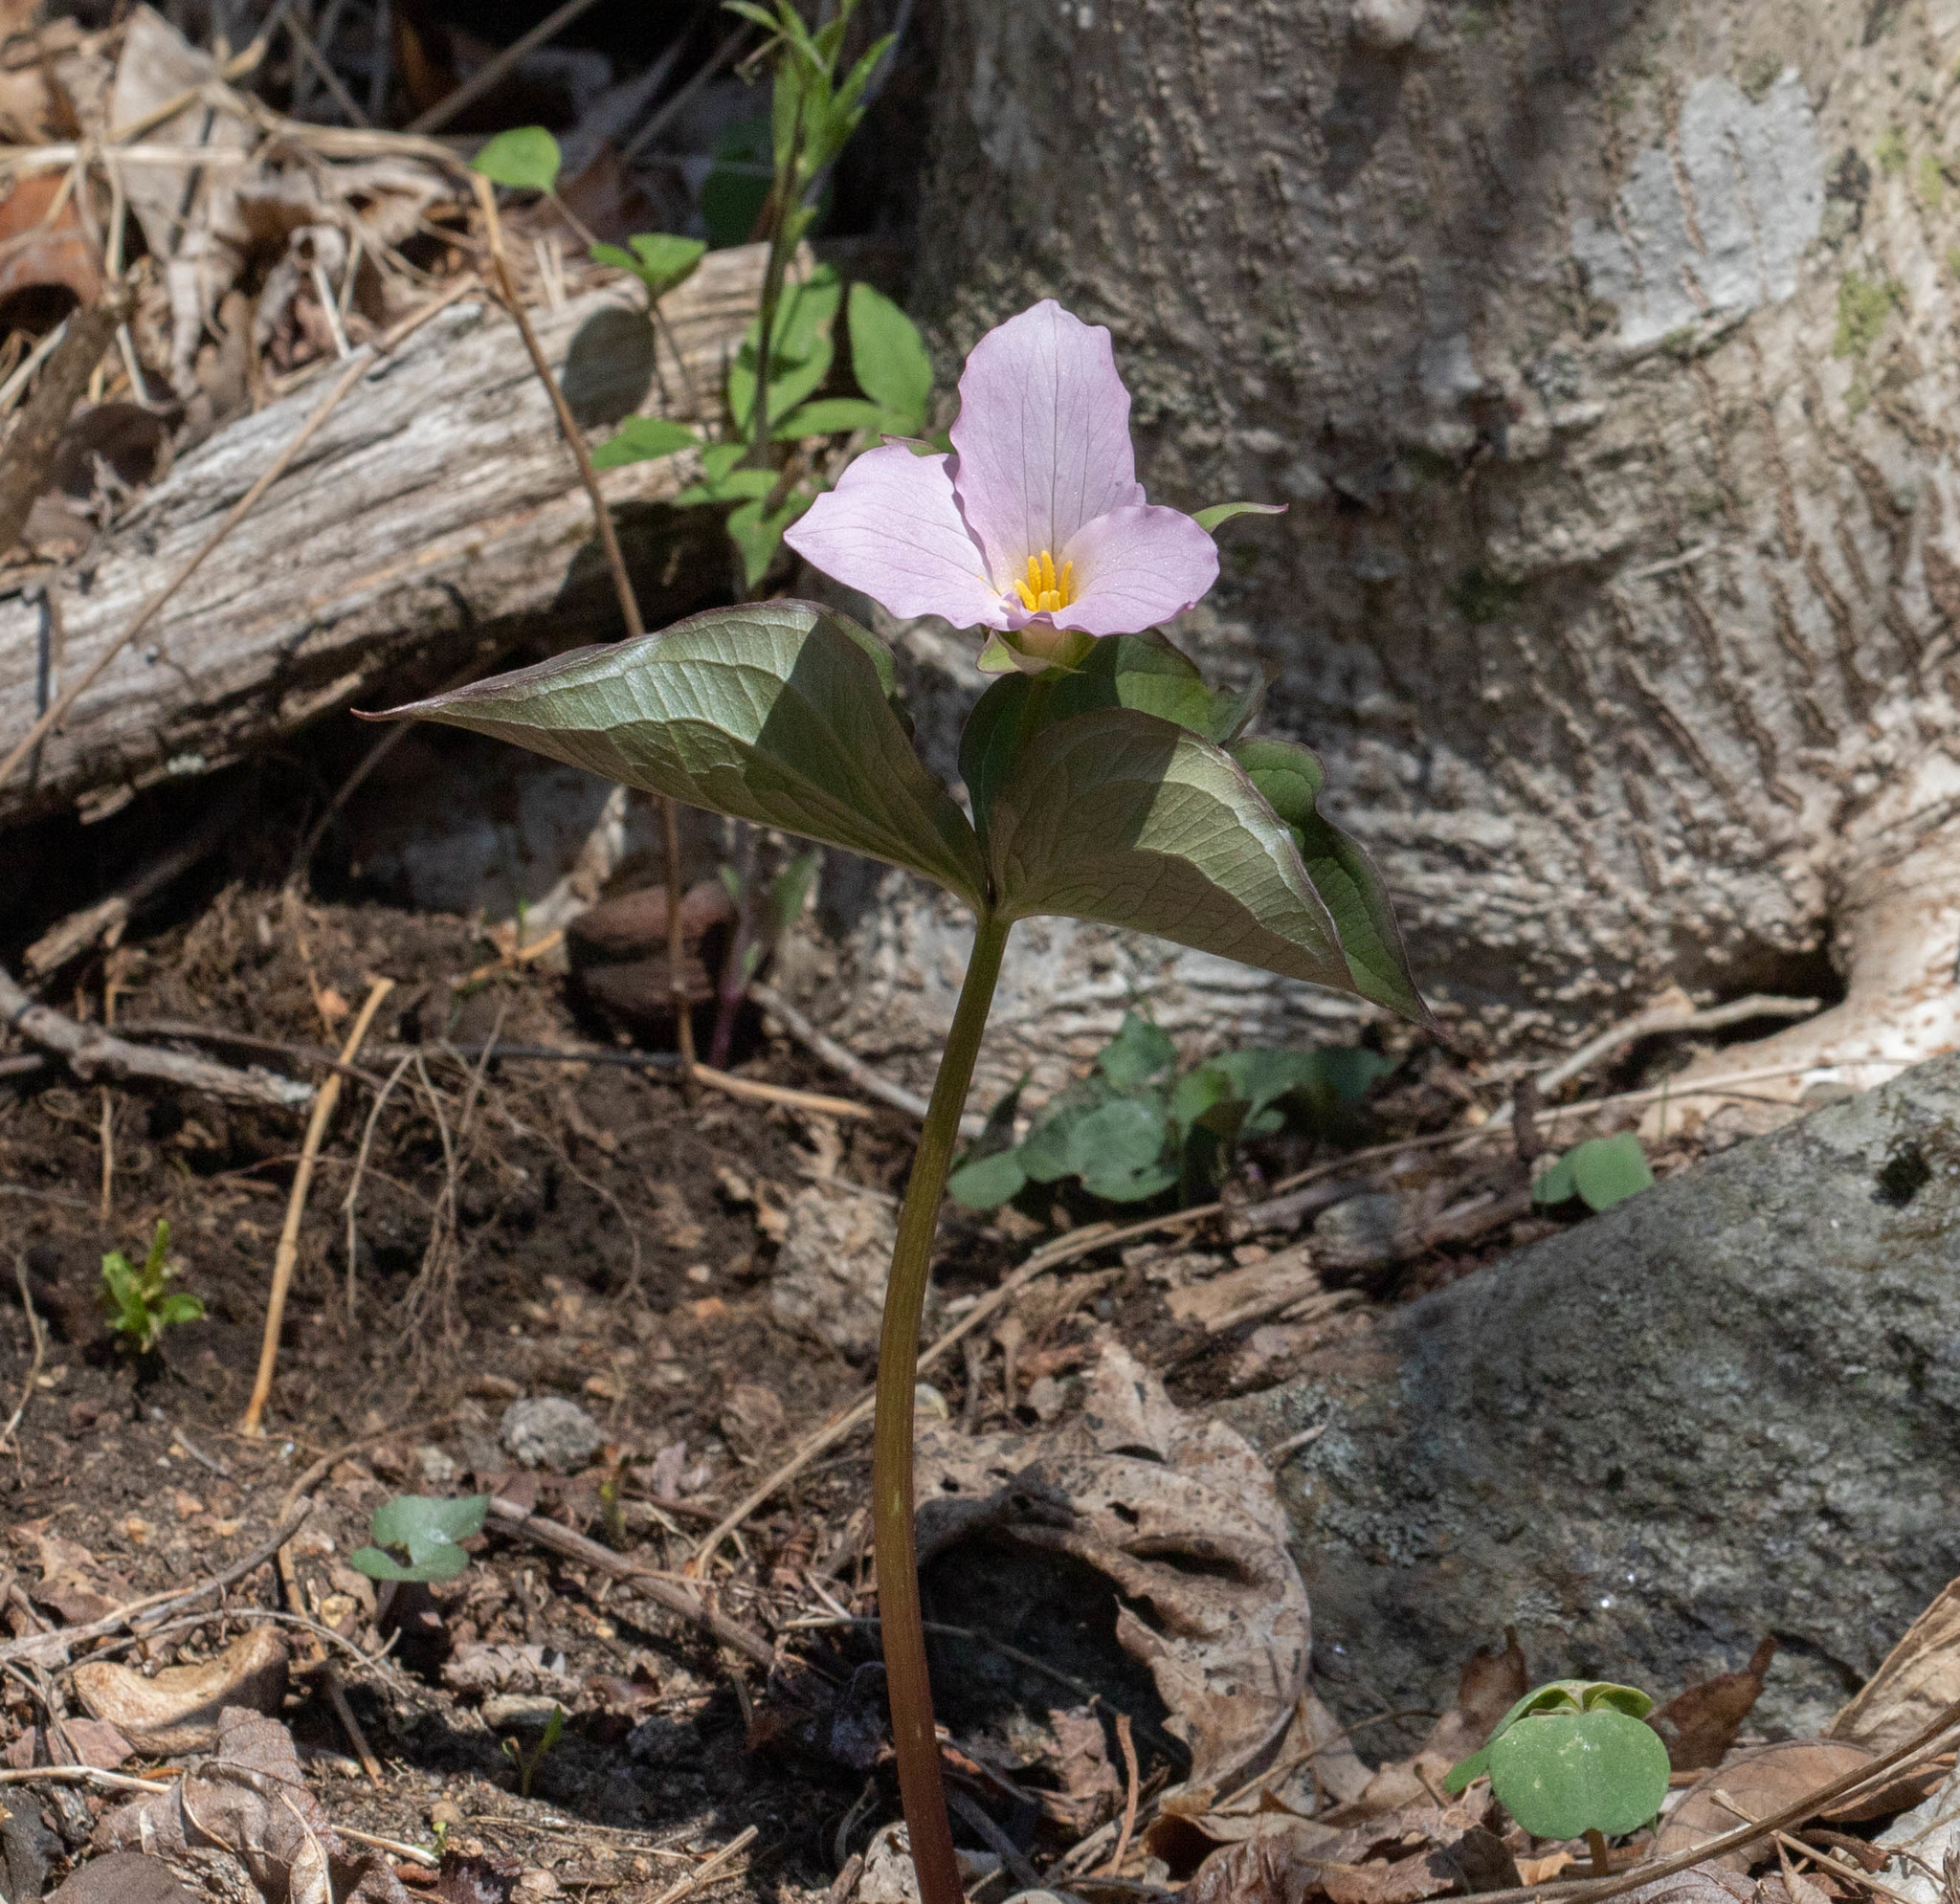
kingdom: Plantae
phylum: Tracheophyta
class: Liliopsida
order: Liliales
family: Melanthiaceae
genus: Trillium
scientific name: Trillium grandiflorum
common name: Great white trillium
